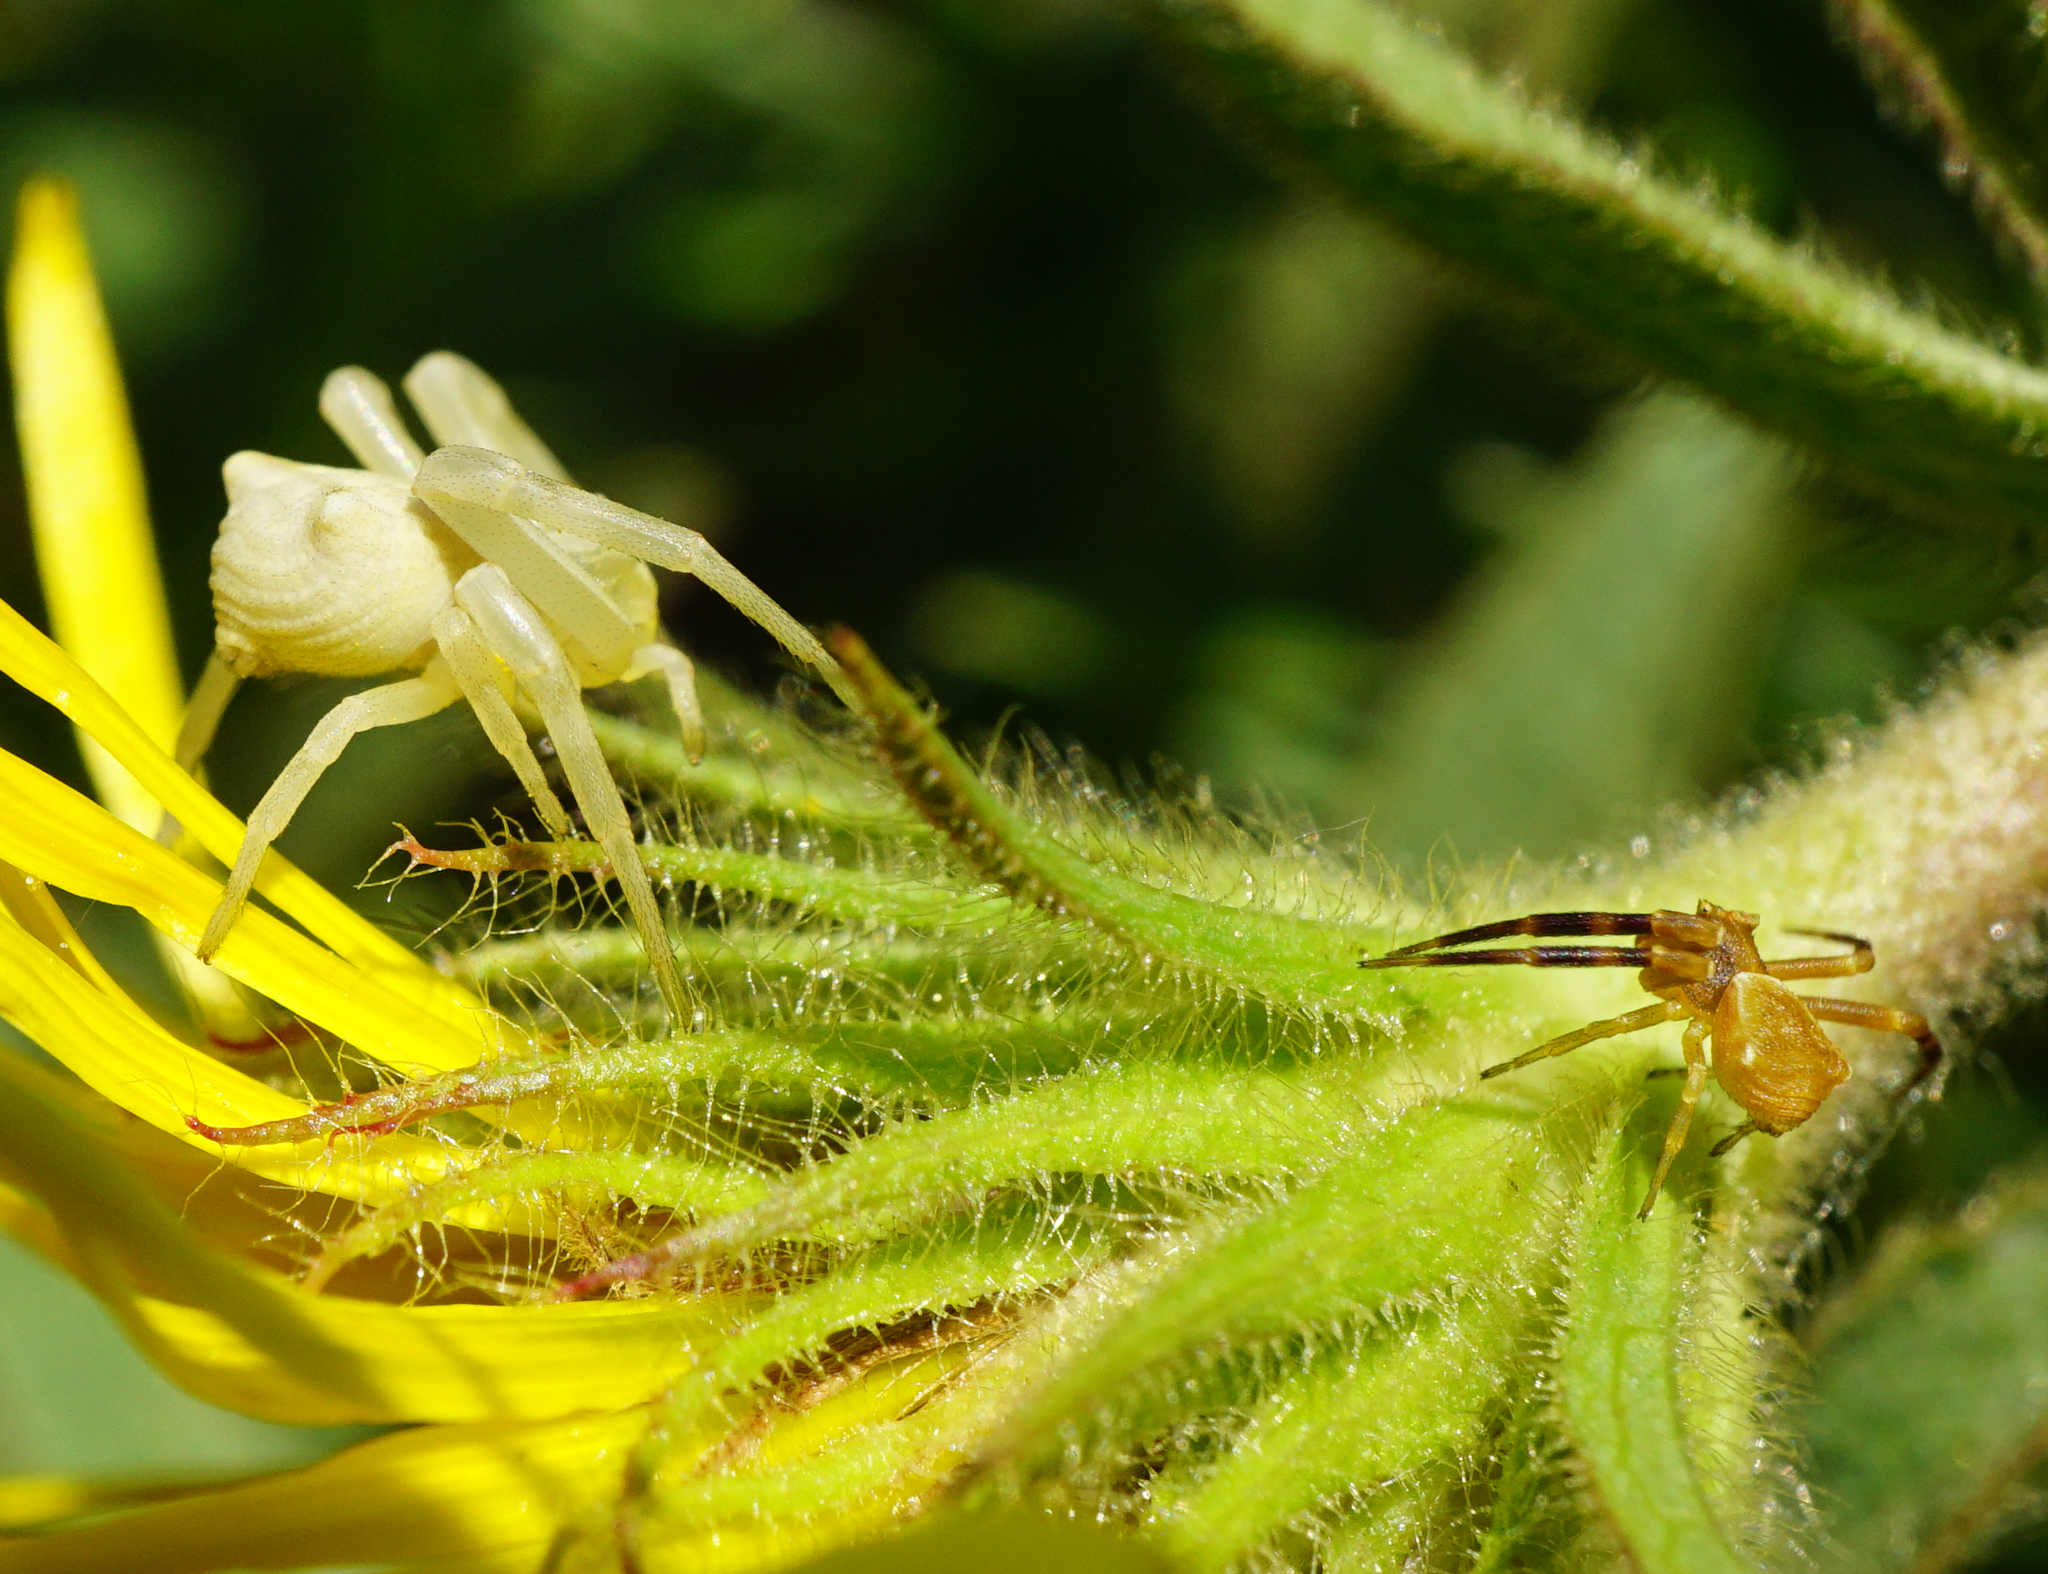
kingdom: Animalia
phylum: Arthropoda
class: Arachnida
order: Araneae
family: Thomisidae
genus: Thomisus
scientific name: Thomisus onustus
